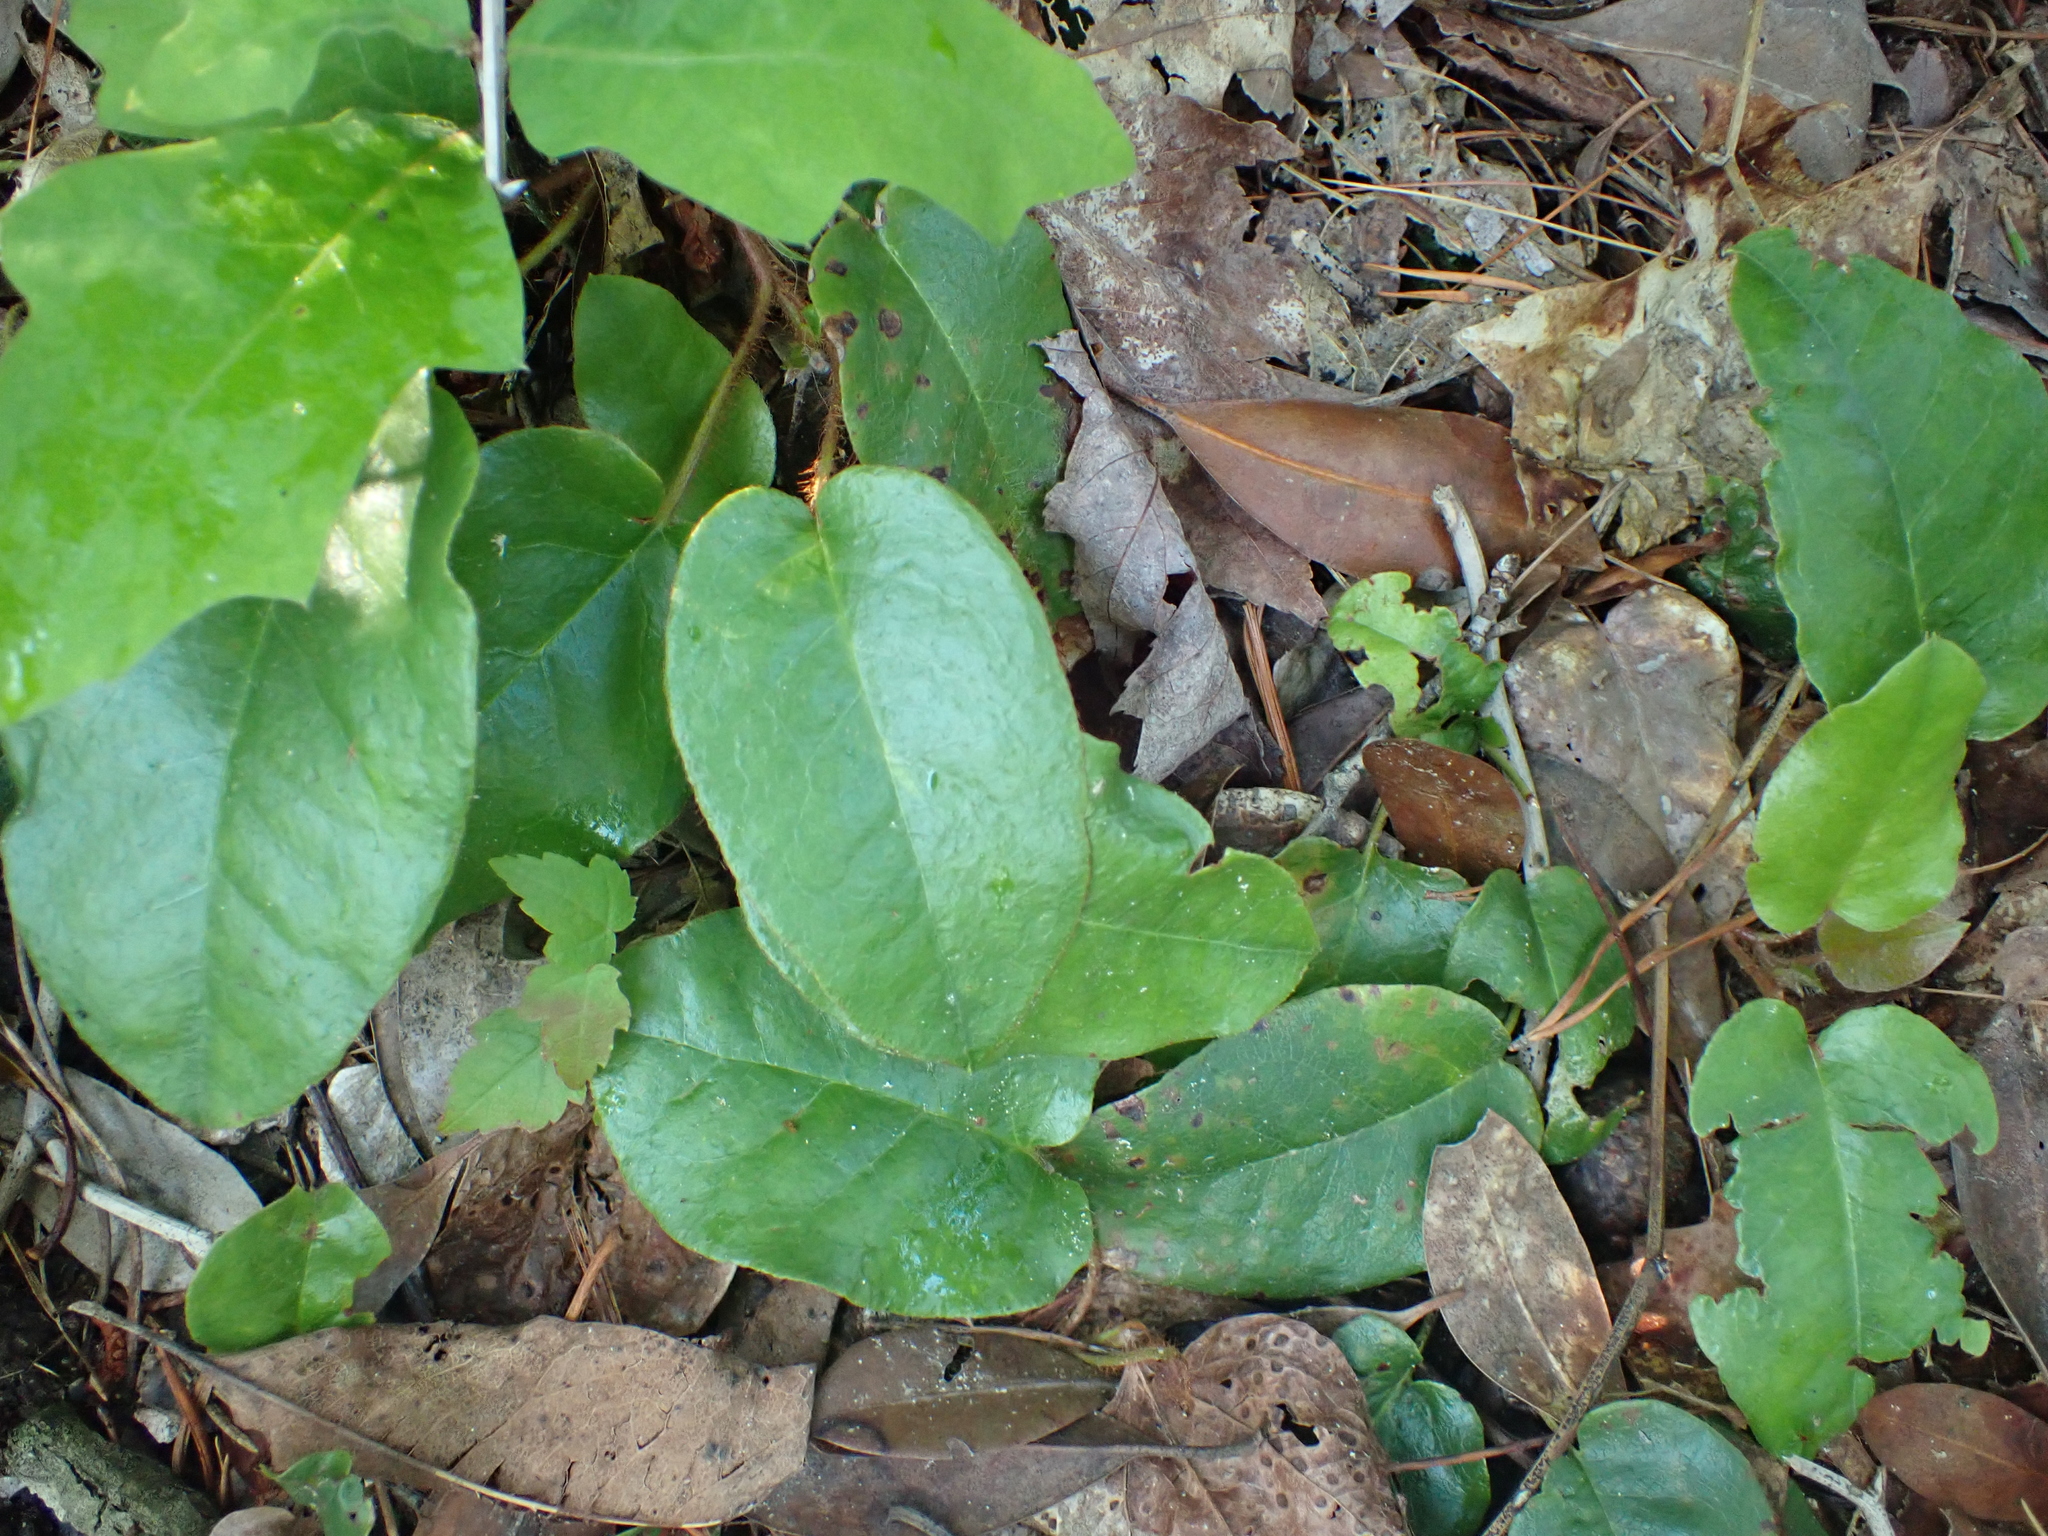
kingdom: Plantae
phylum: Tracheophyta
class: Magnoliopsida
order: Ericales
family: Ericaceae
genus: Epigaea
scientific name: Epigaea repens
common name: Gravelroot
